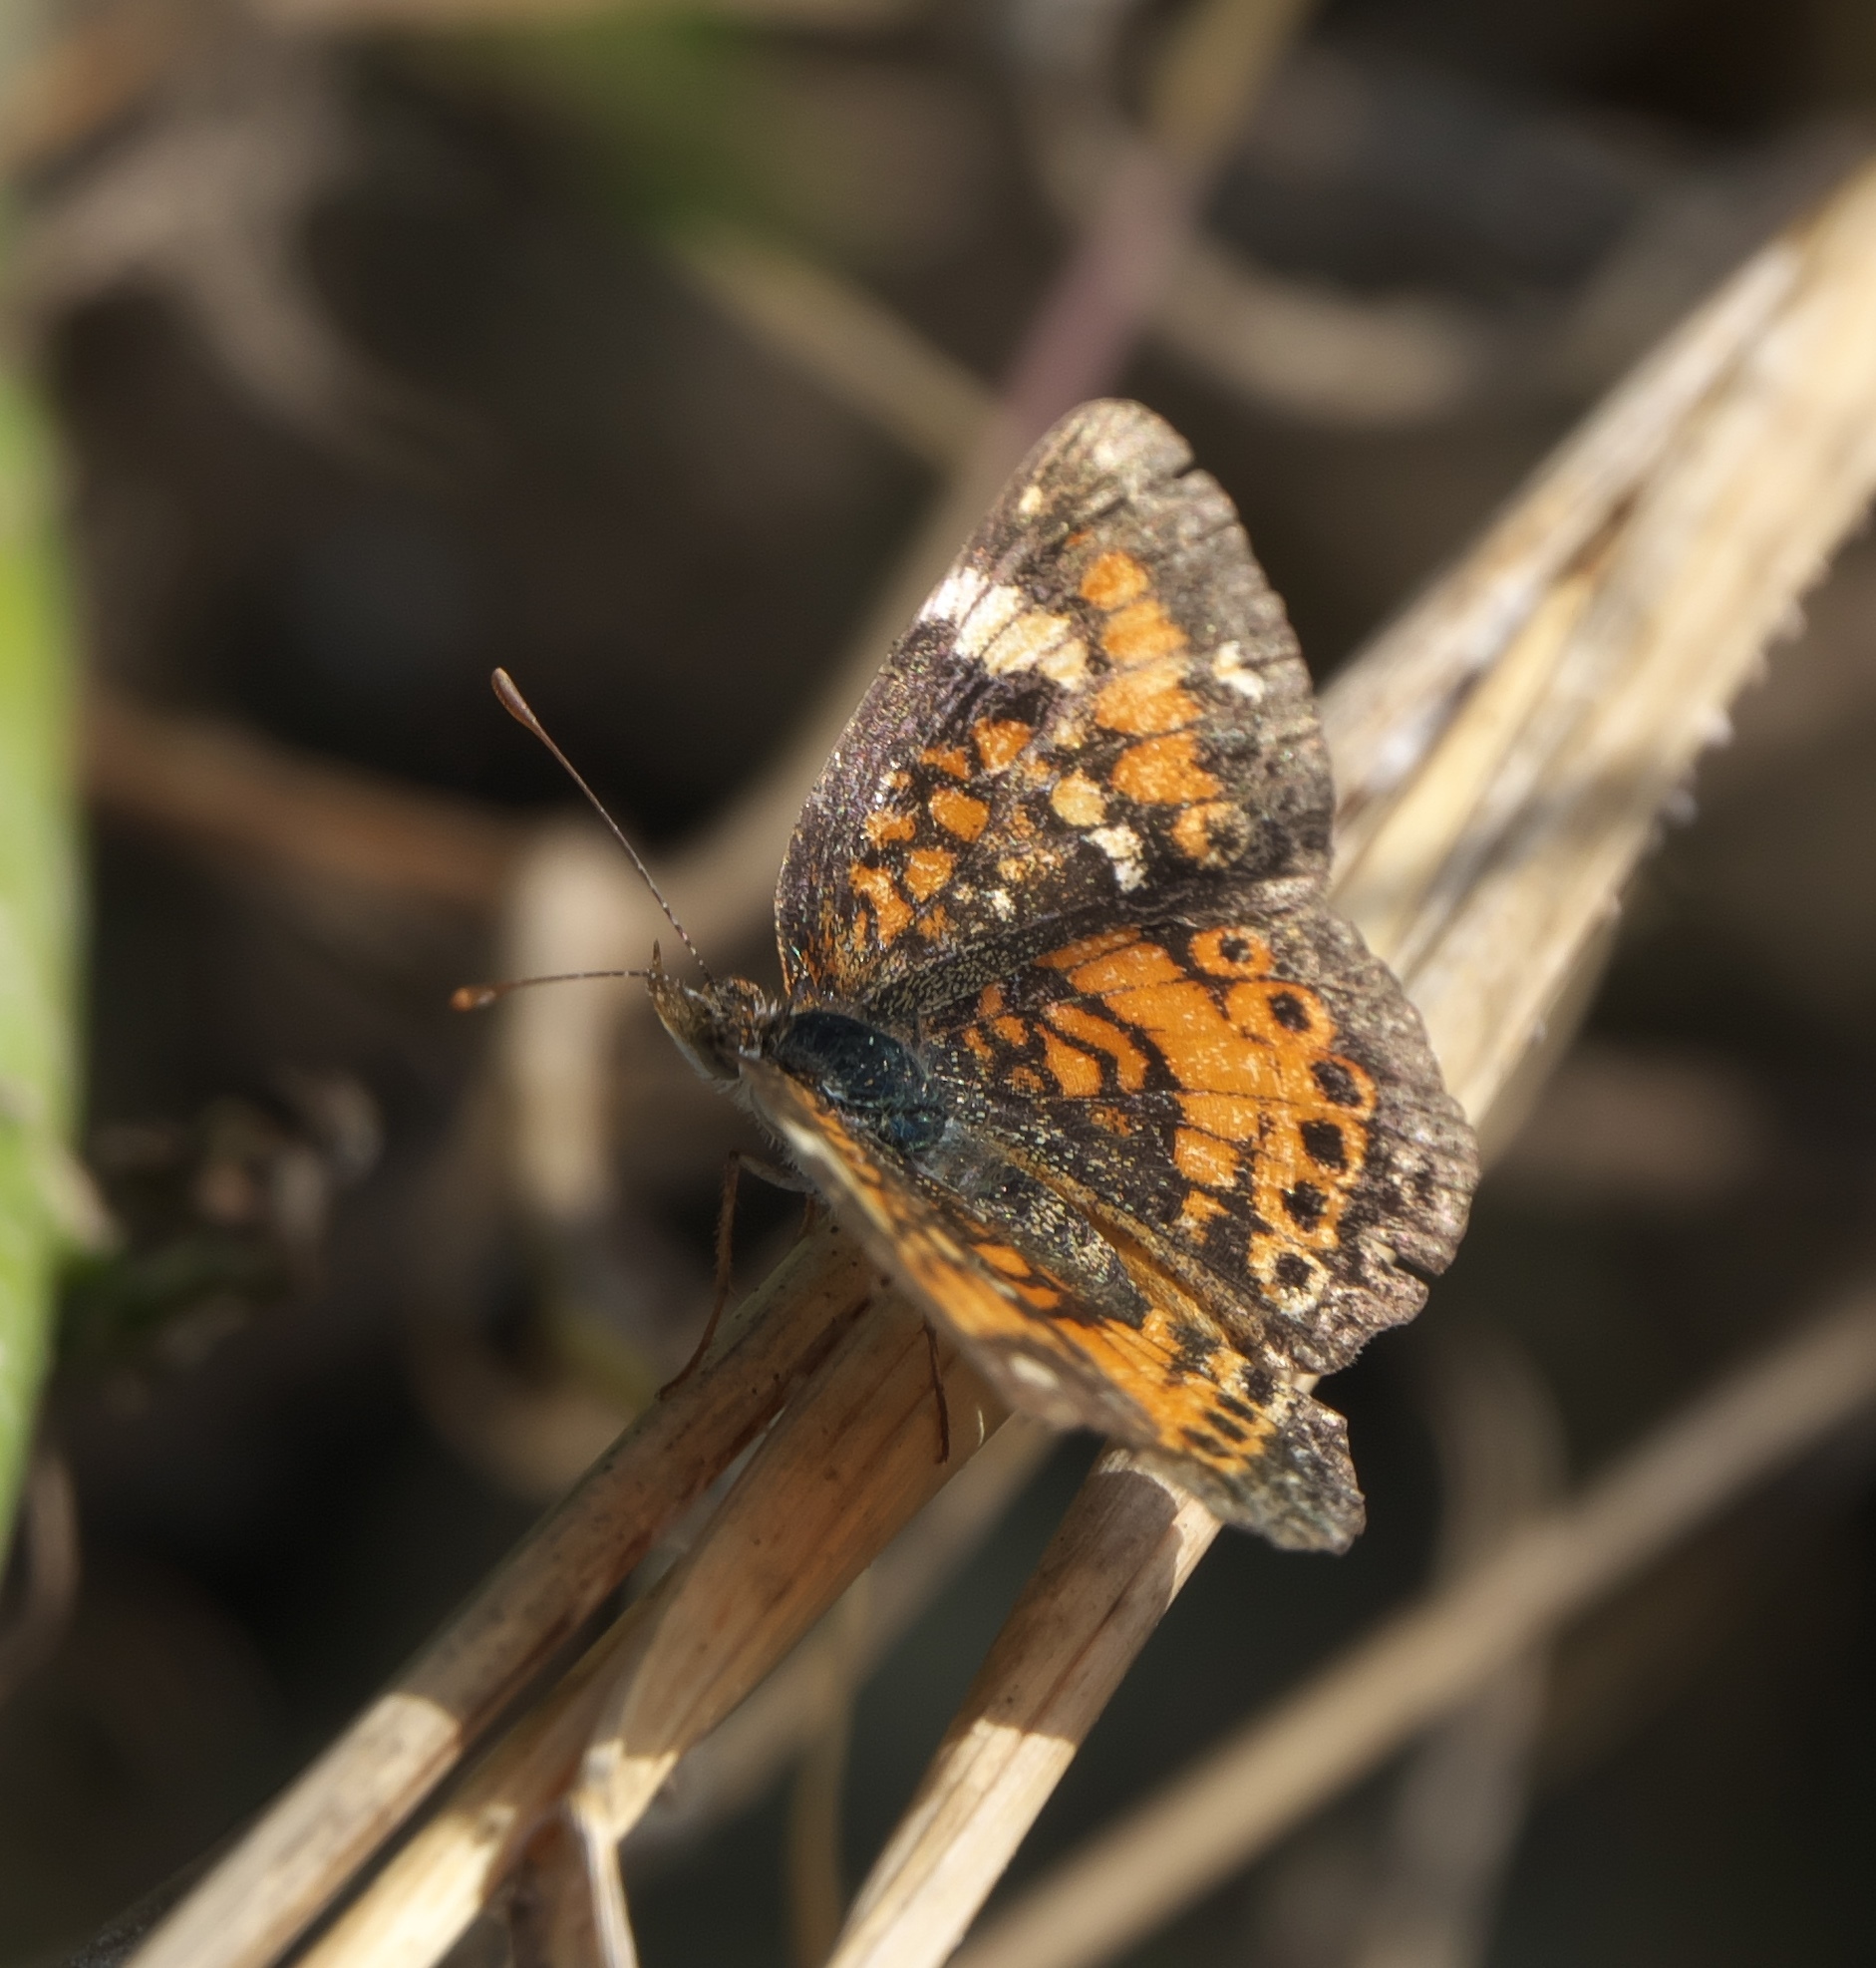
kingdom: Animalia
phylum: Arthropoda
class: Insecta
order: Lepidoptera
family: Nymphalidae
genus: Phyciodes
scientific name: Phyciodes phaon
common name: Phaon crescent
